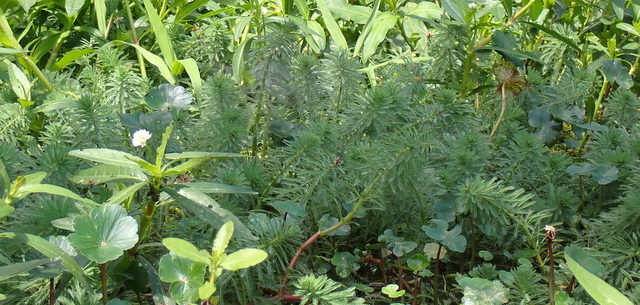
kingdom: Plantae
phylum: Tracheophyta
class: Magnoliopsida
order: Saxifragales
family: Haloragaceae
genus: Myriophyllum
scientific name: Myriophyllum aquaticum
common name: Parrot's feather
